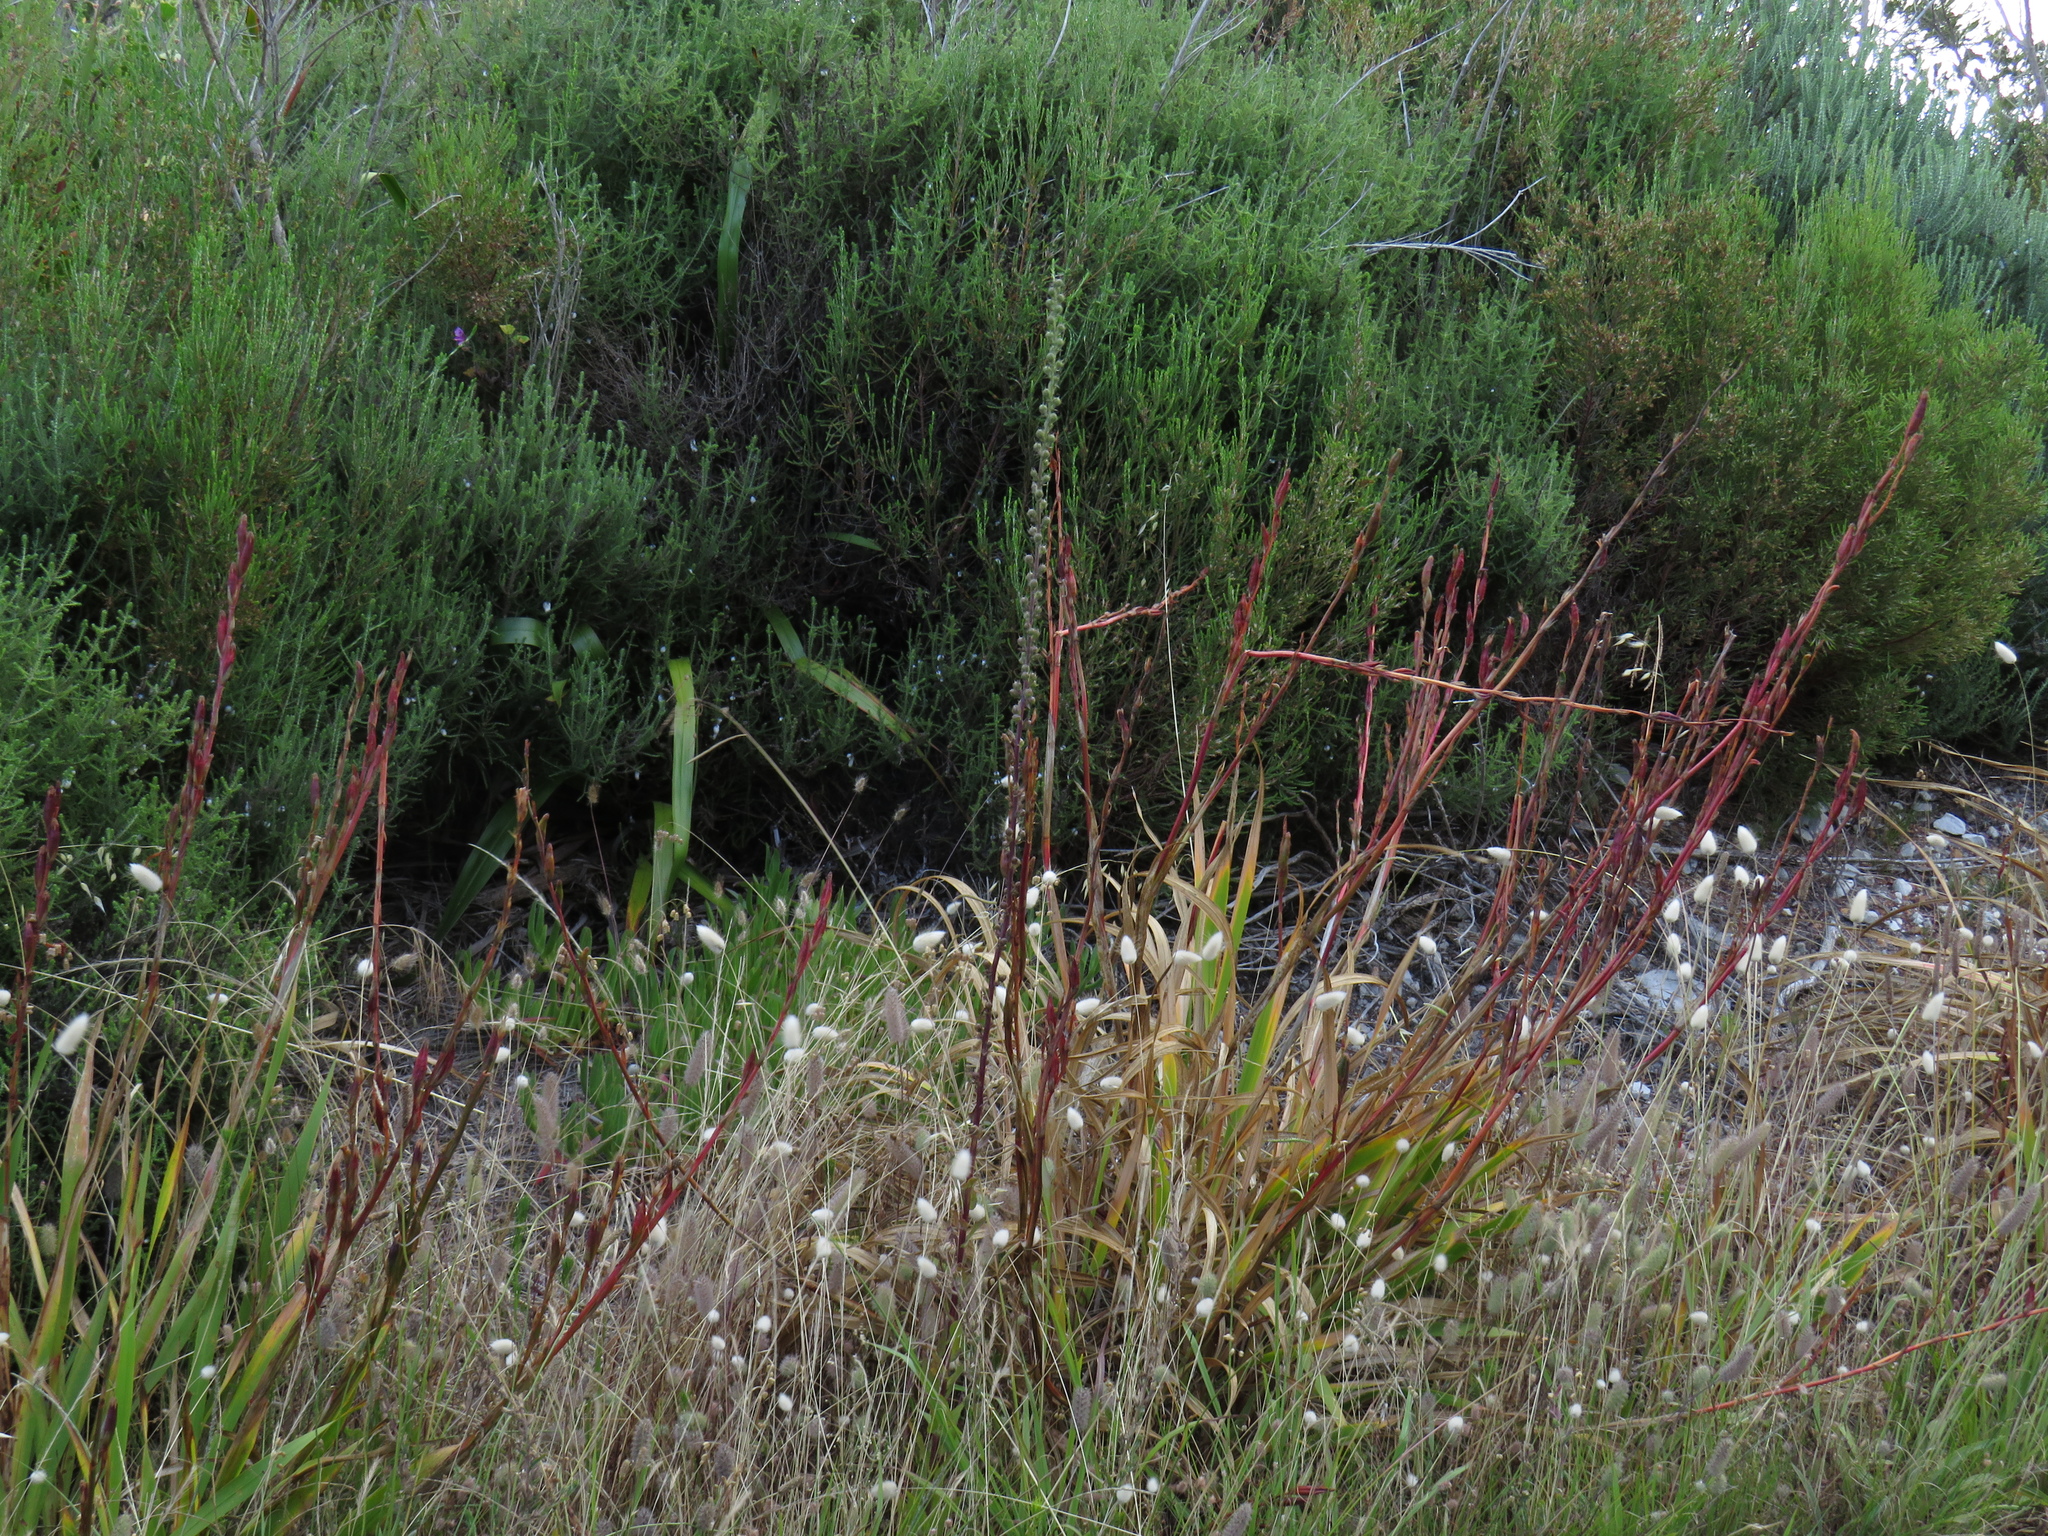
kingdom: Plantae
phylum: Tracheophyta
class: Magnoliopsida
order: Lamiales
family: Scrophulariaceae
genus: Verbascum
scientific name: Verbascum virgatum
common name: Twiggy mullein
